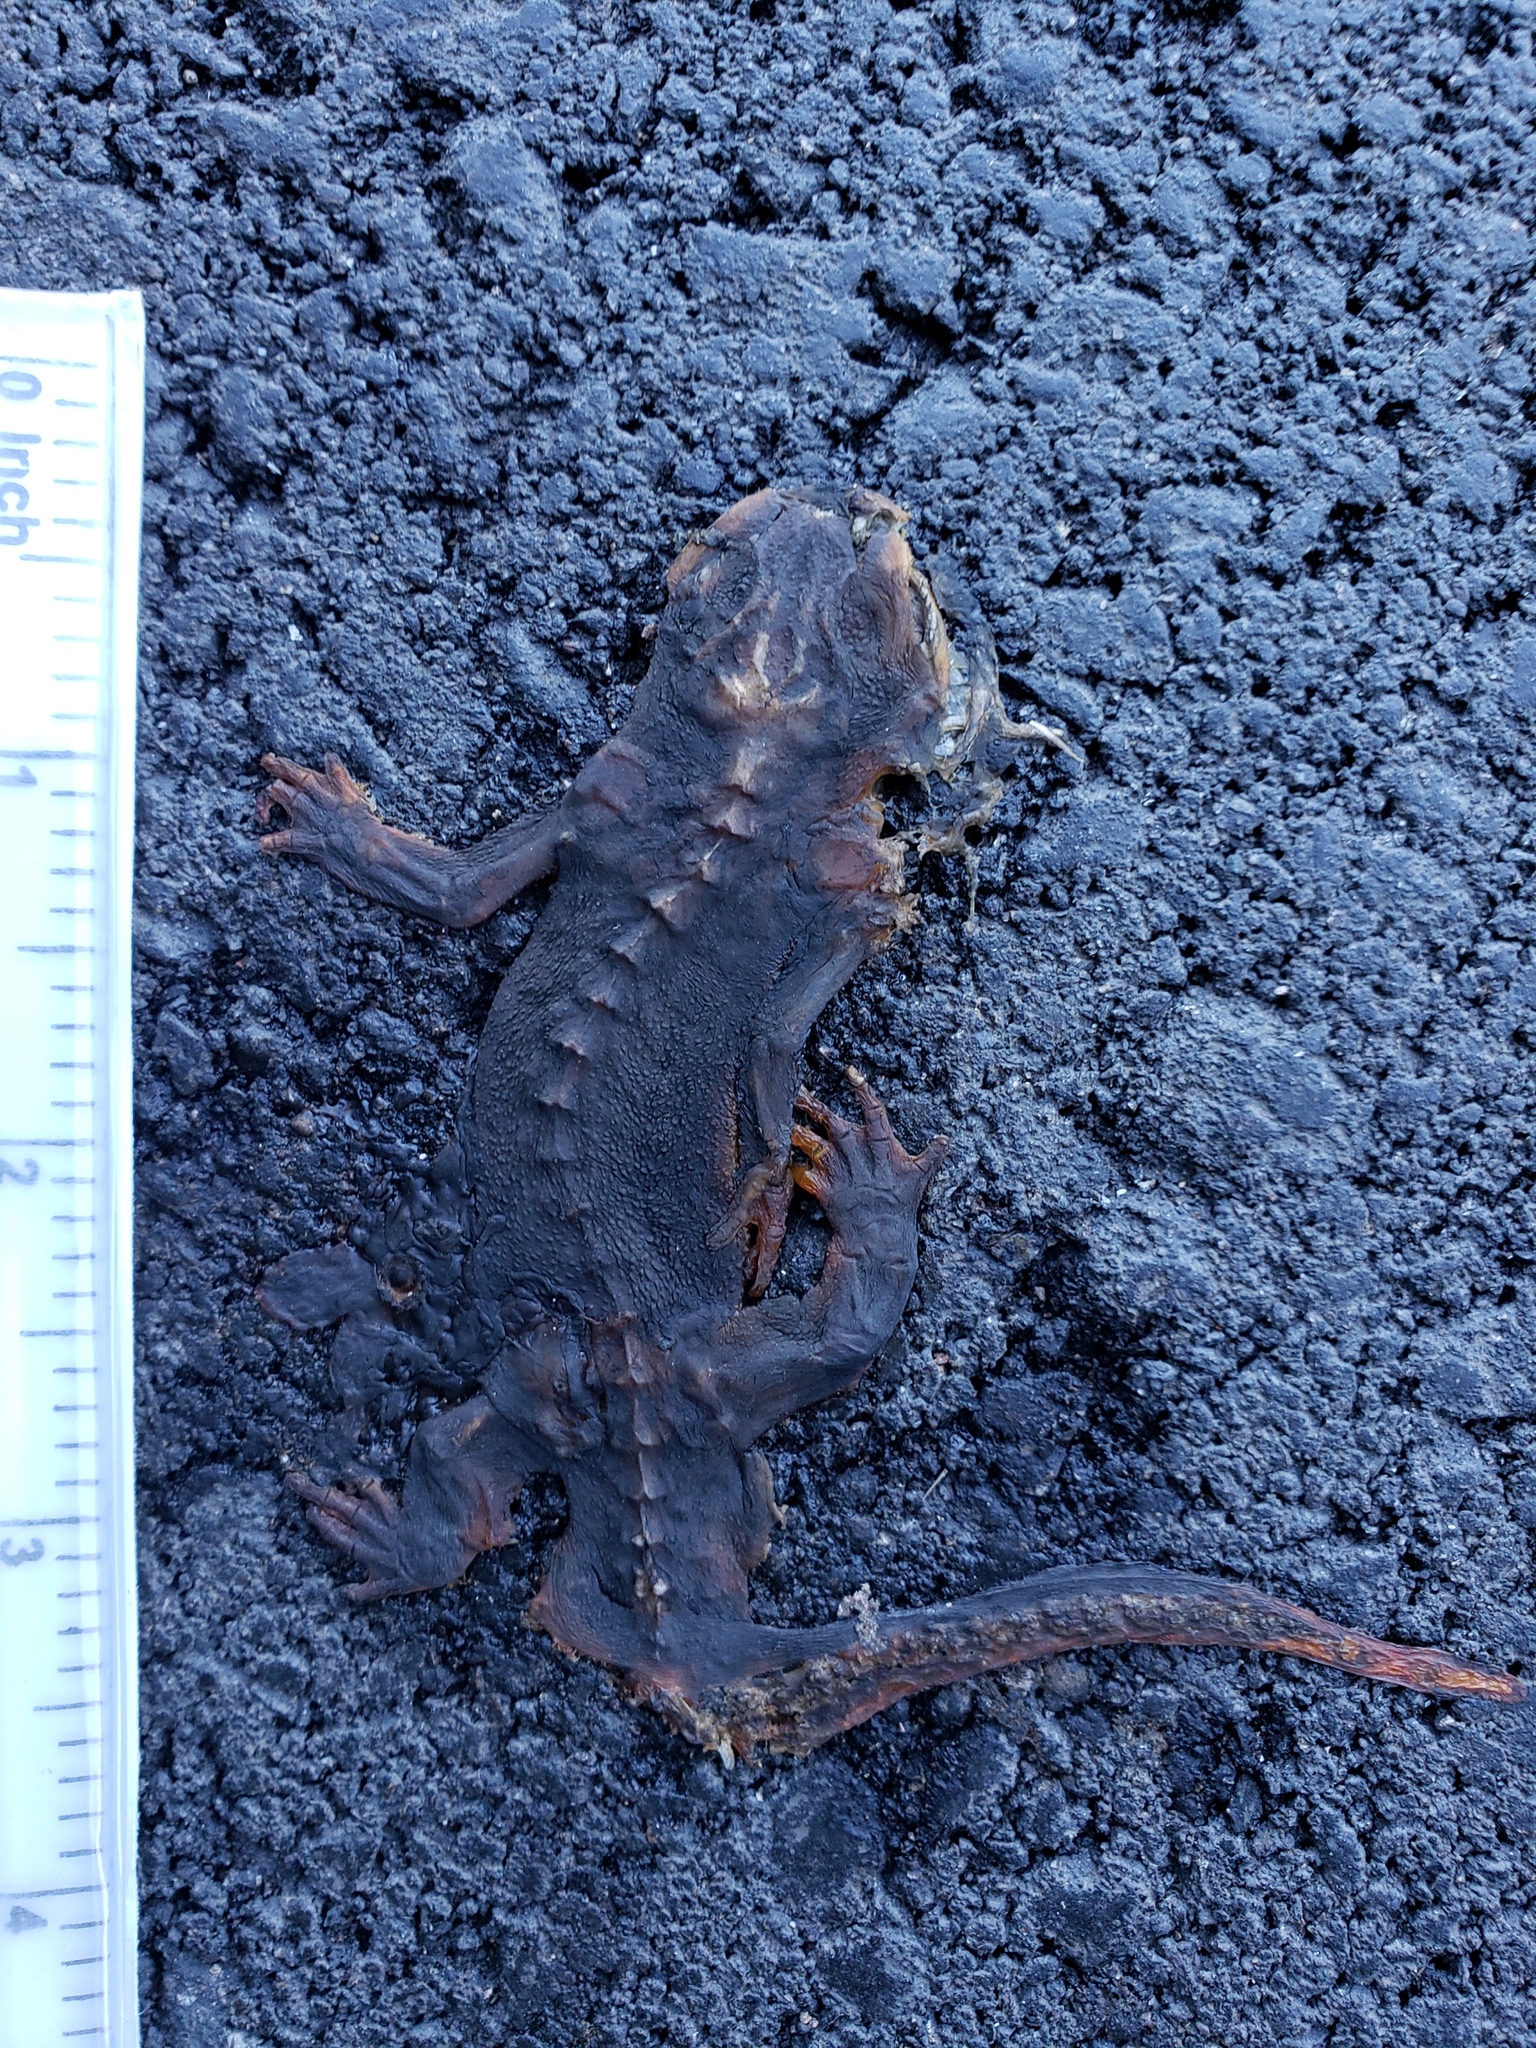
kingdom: Animalia
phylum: Chordata
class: Amphibia
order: Caudata
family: Salamandridae
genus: Taricha
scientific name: Taricha
